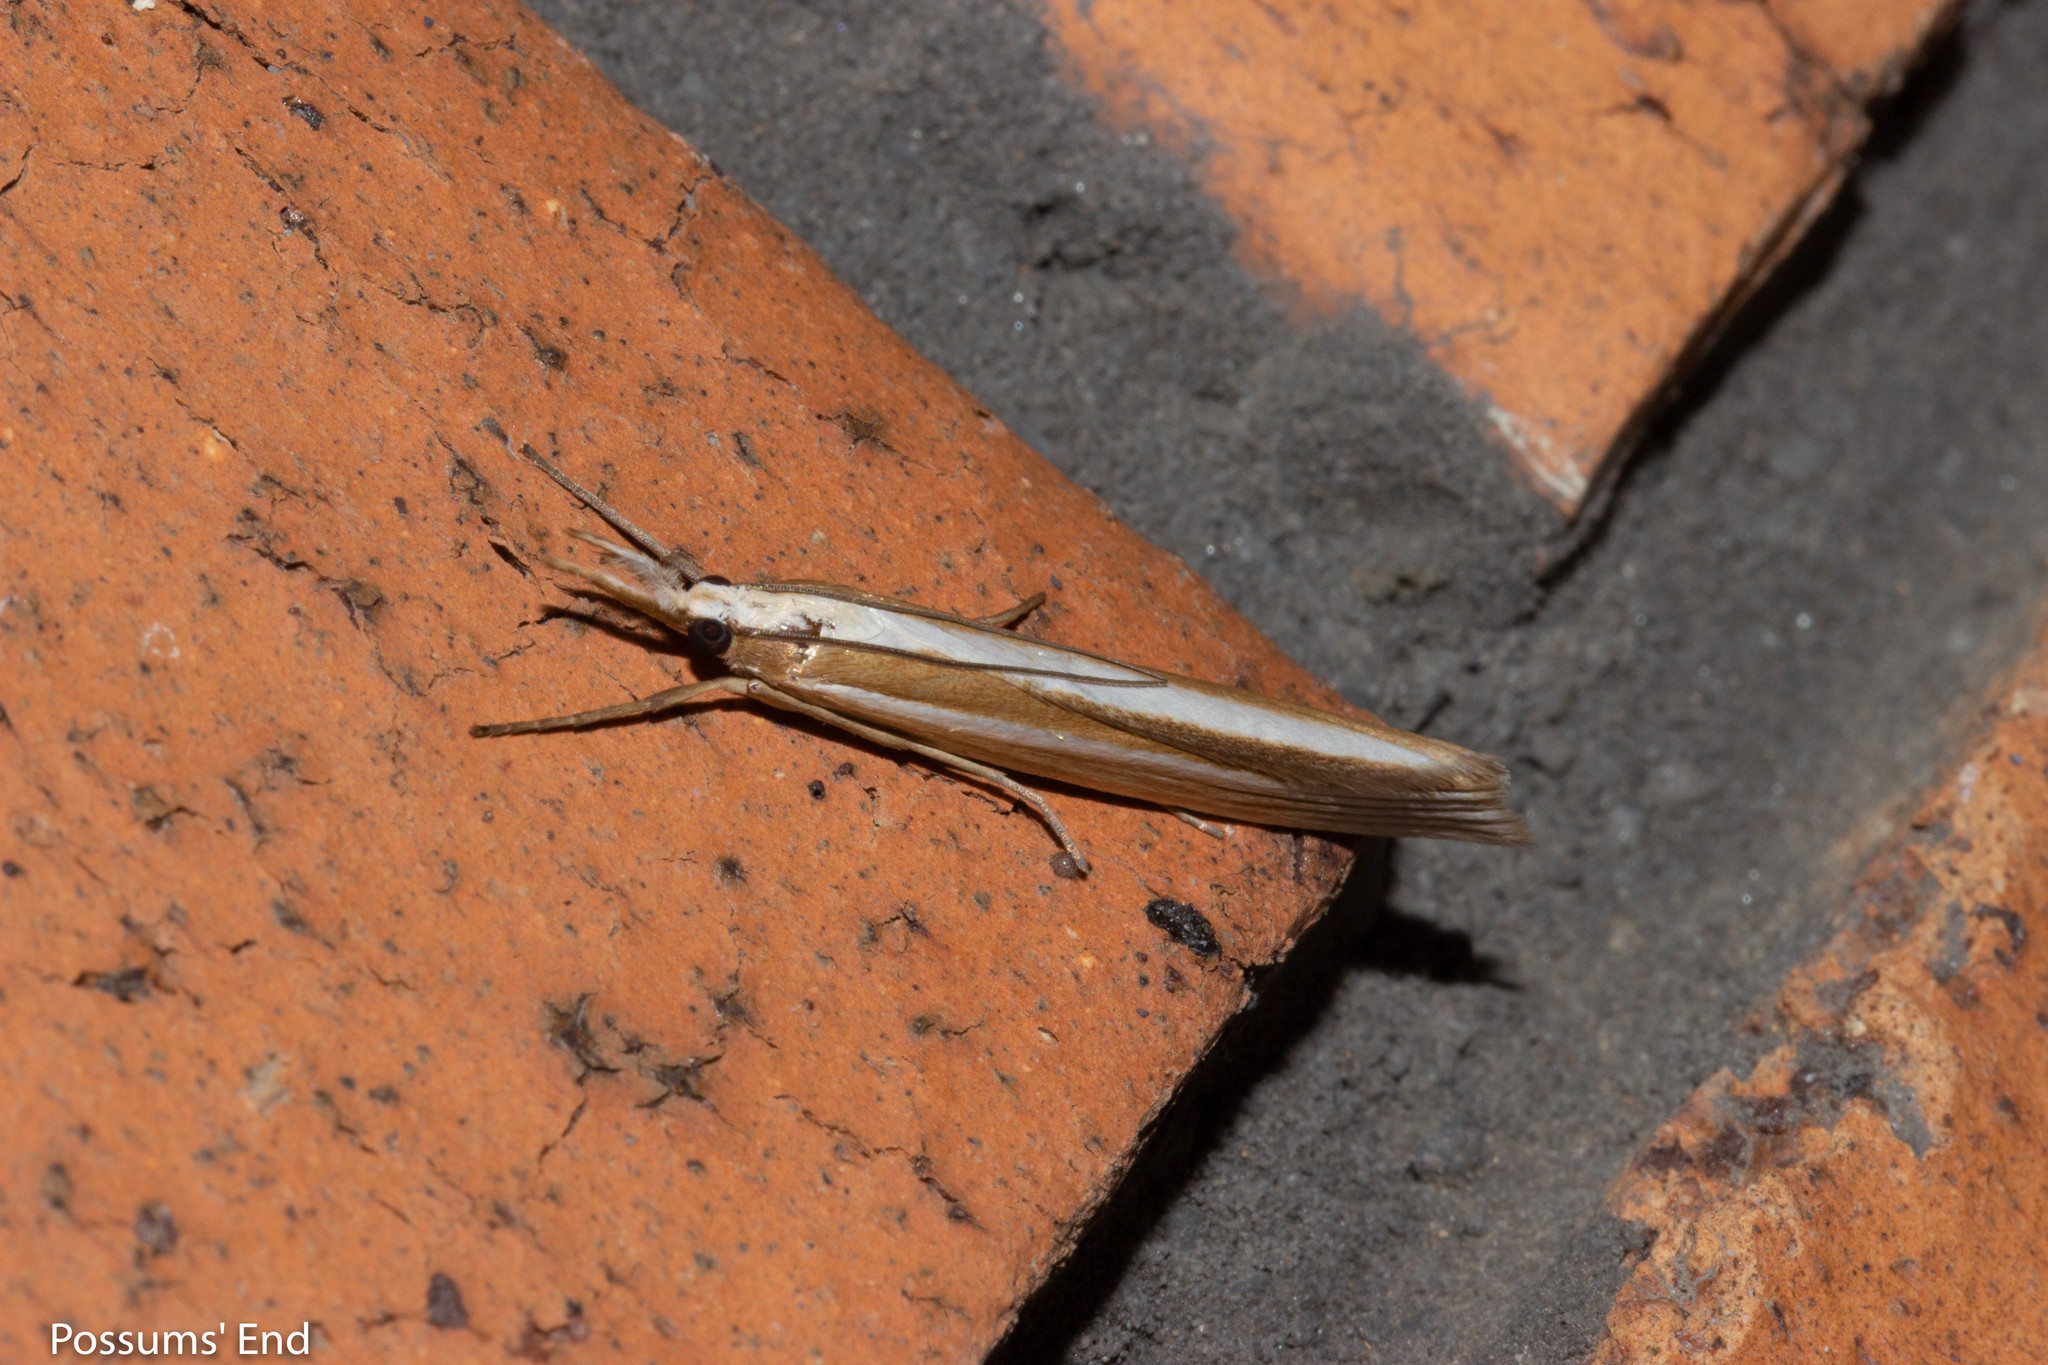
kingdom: Animalia
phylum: Arthropoda
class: Insecta
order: Lepidoptera
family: Crambidae
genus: Orocrambus
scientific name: Orocrambus angustipennis
